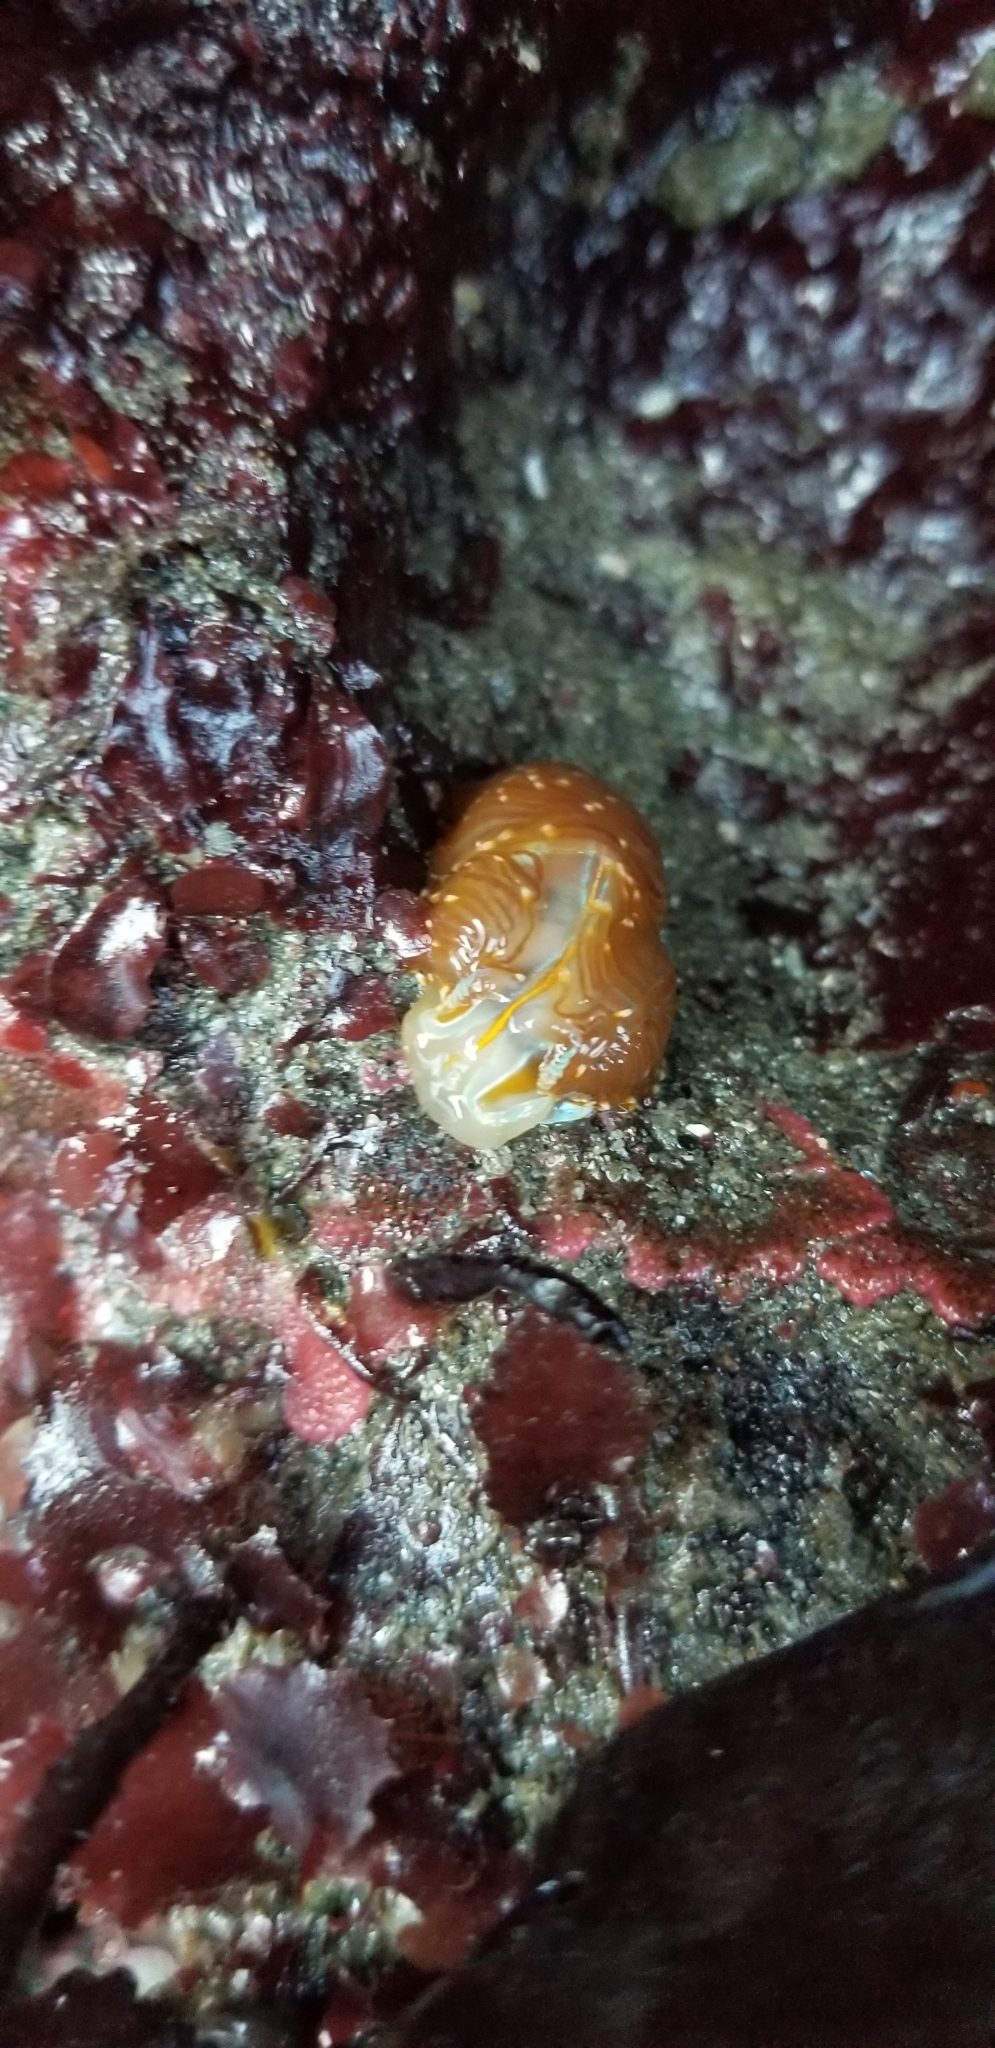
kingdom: Animalia
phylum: Mollusca
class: Gastropoda
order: Nudibranchia
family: Myrrhinidae
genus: Hermissenda
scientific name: Hermissenda opalescens
